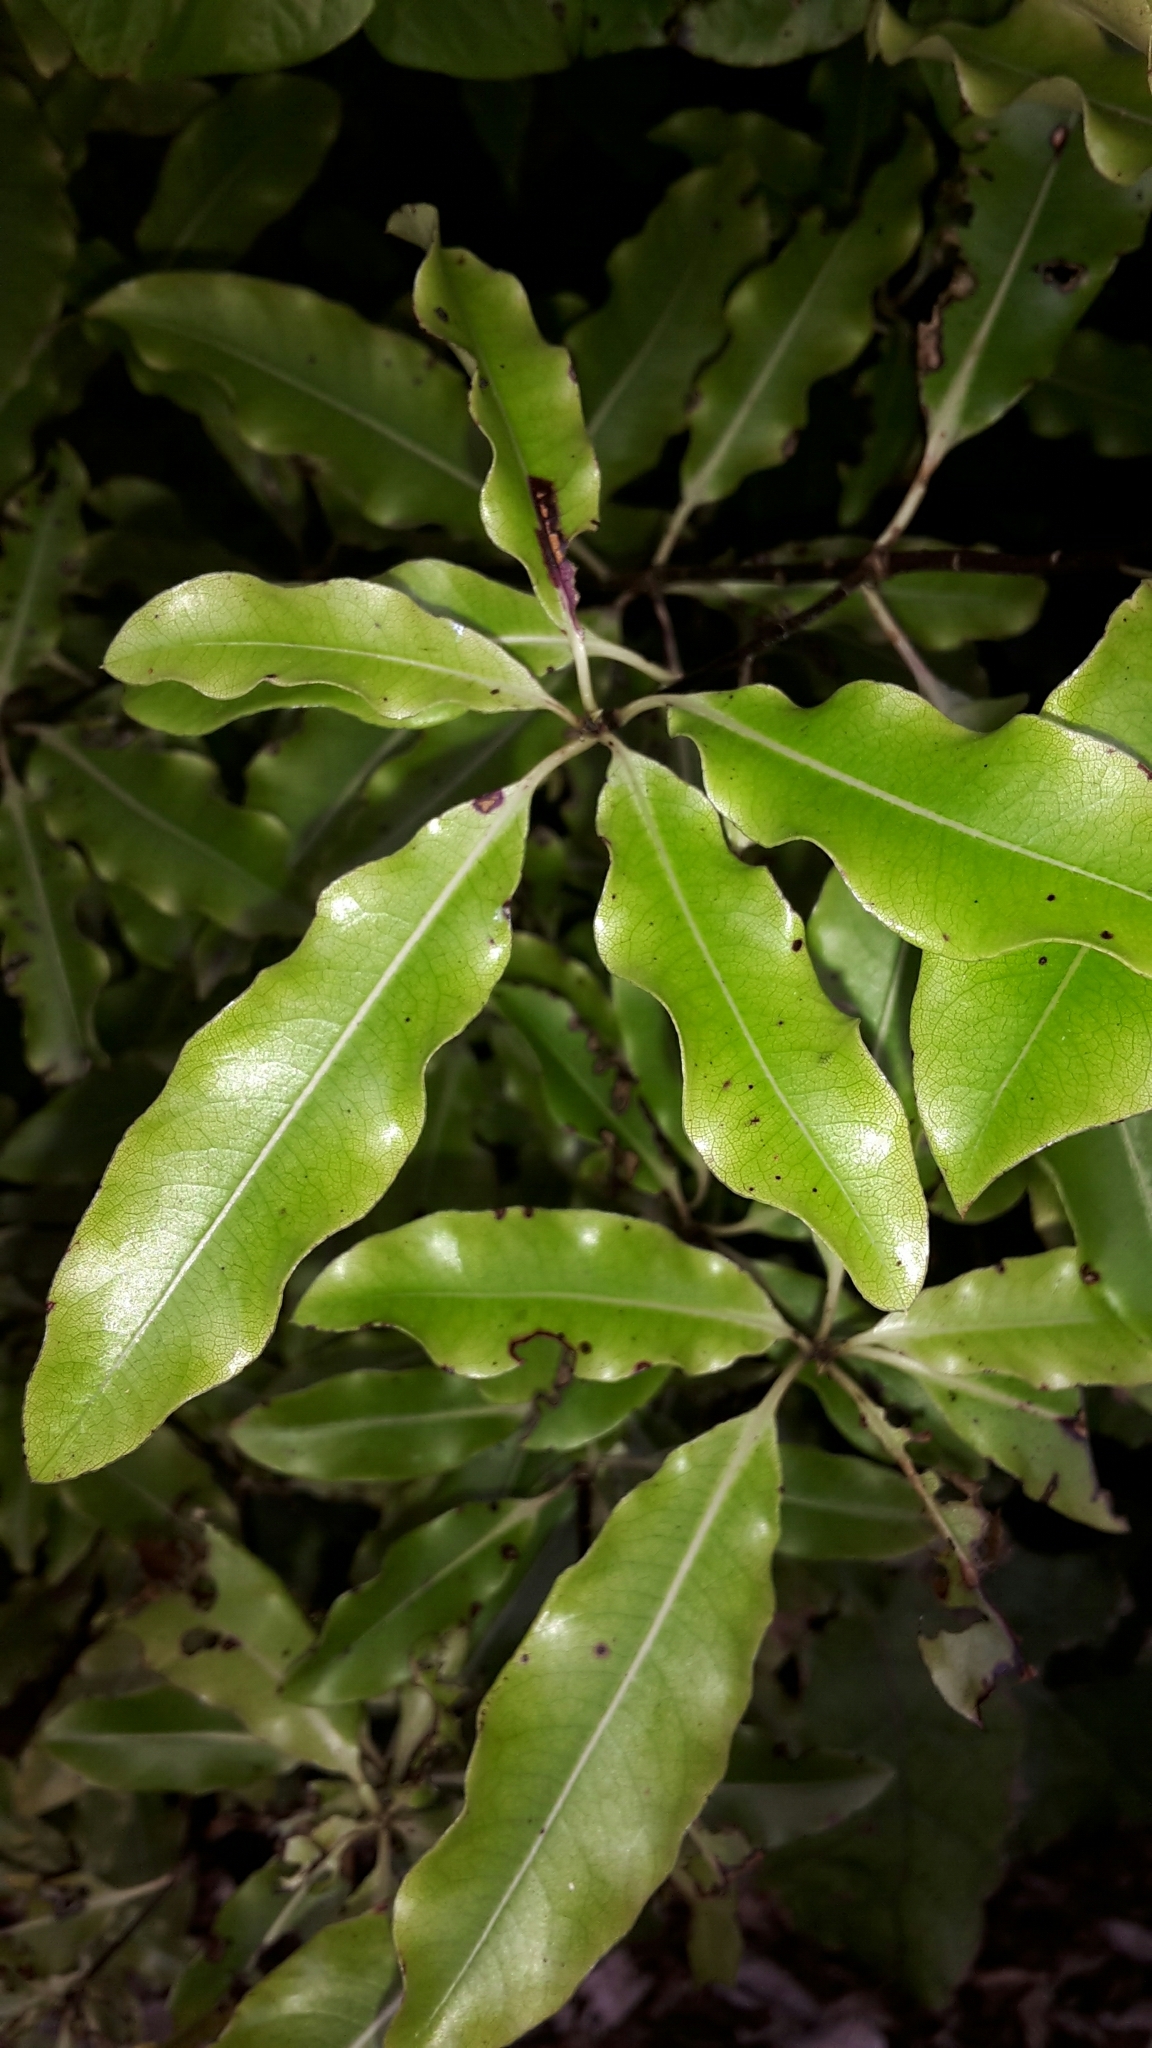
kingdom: Plantae
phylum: Tracheophyta
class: Magnoliopsida
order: Apiales
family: Pittosporaceae
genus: Pittosporum
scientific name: Pittosporum eugenioides
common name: Lemonwood
